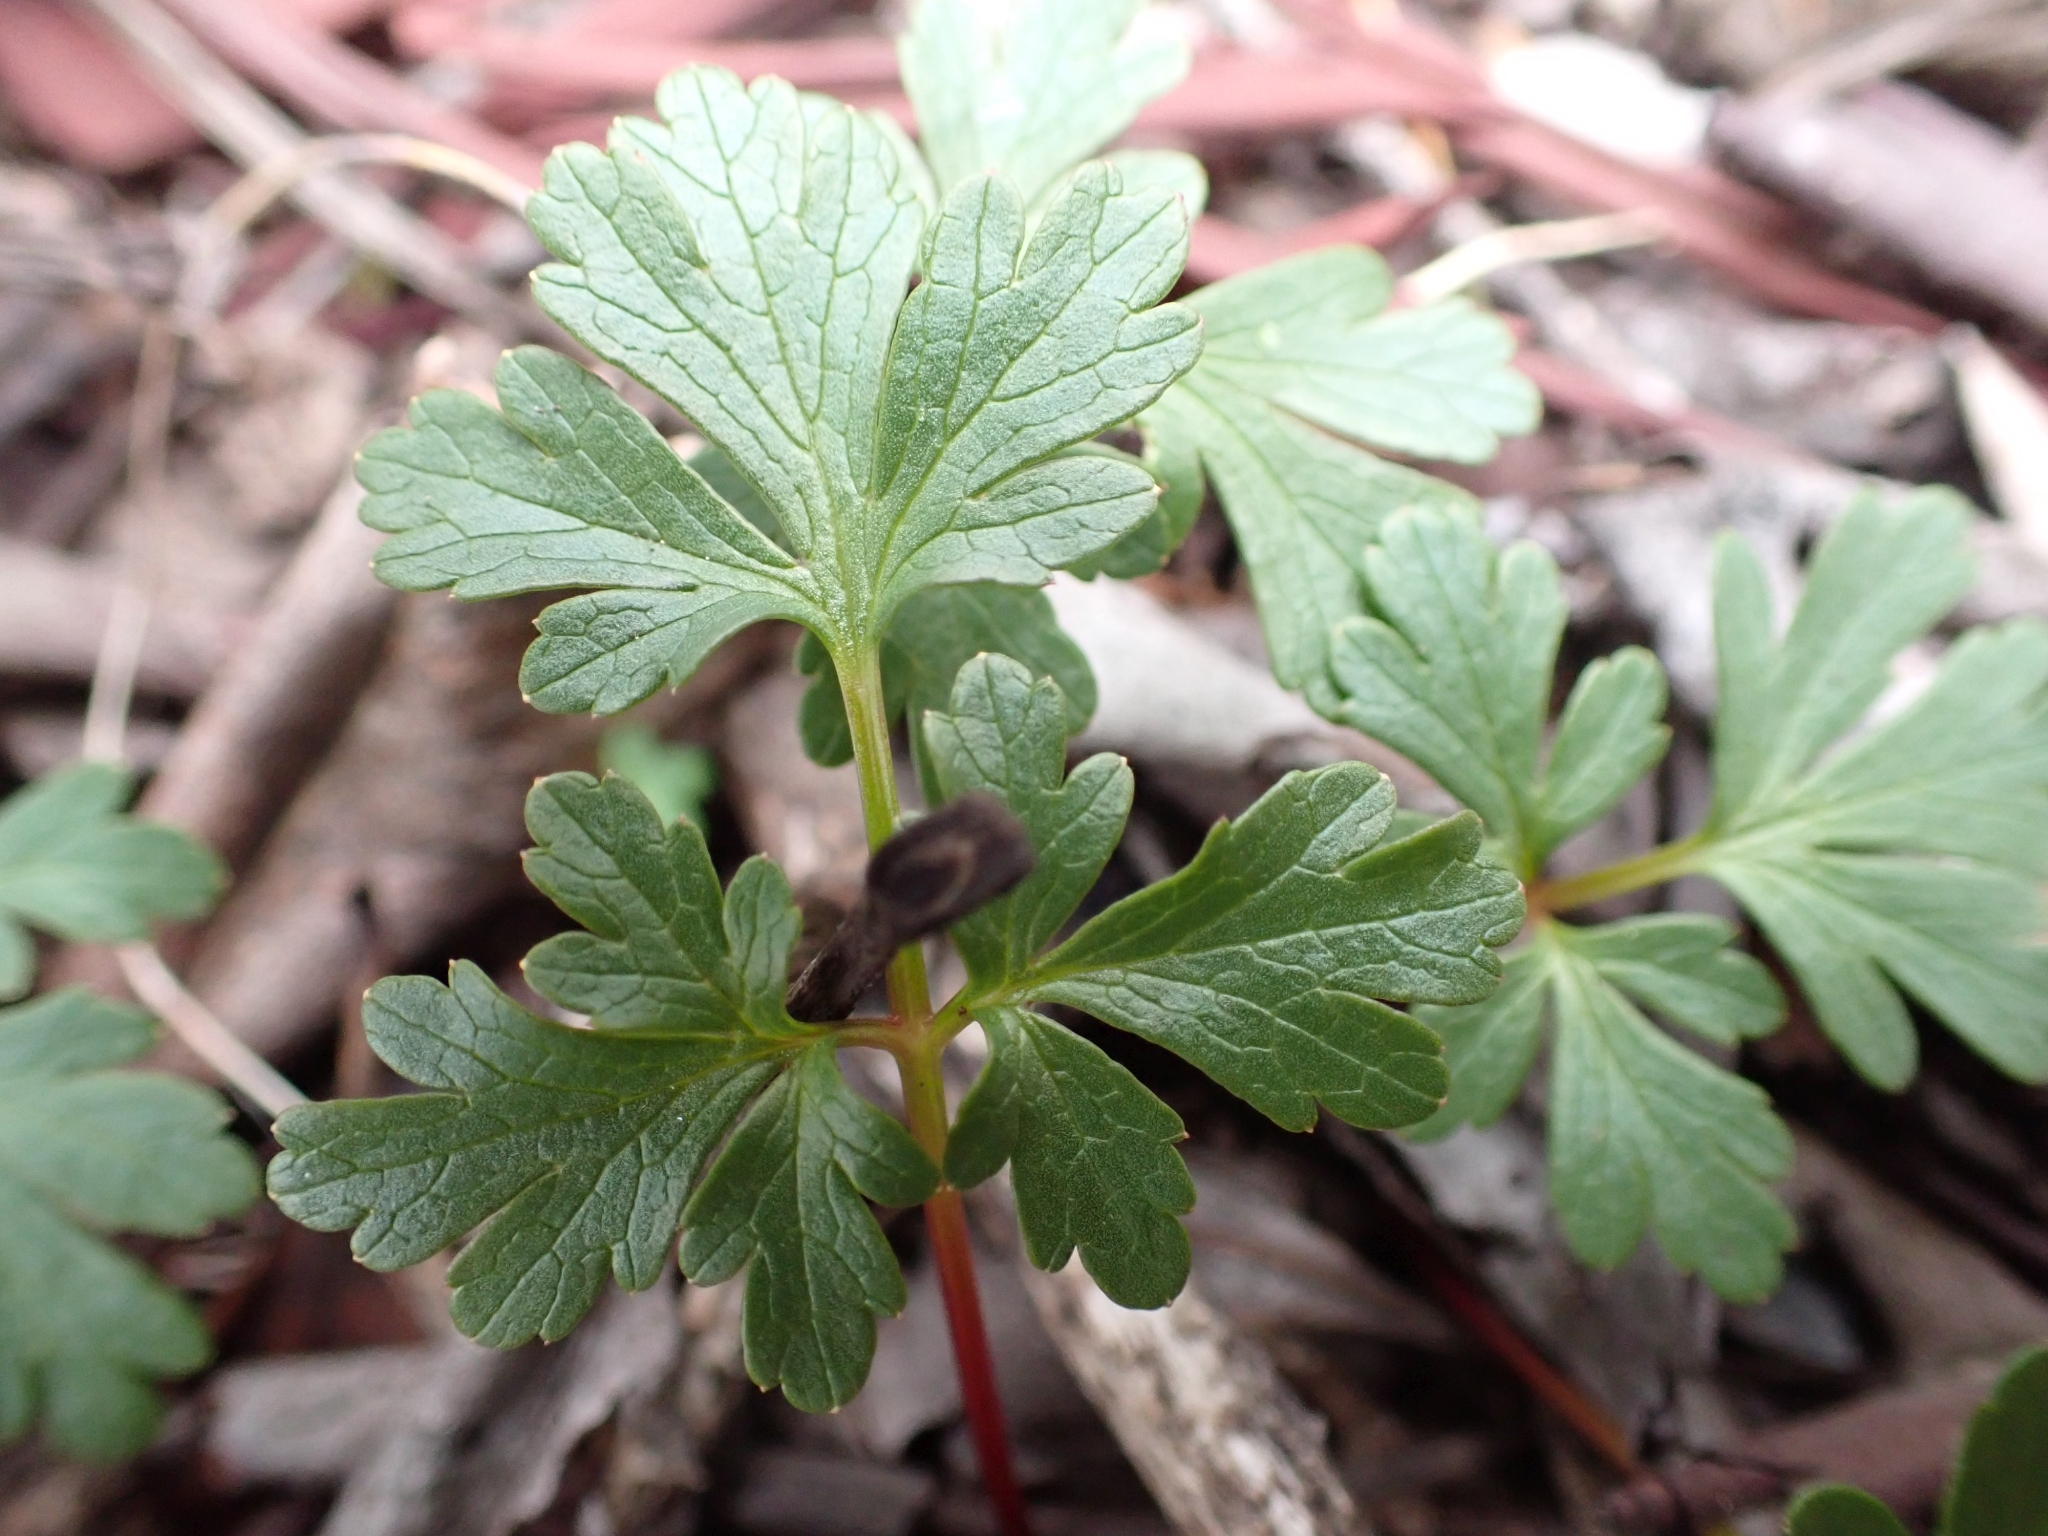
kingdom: Plantae
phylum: Tracheophyta
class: Magnoliopsida
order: Apiales
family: Apiaceae
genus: Sanicula
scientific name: Sanicula graveolens
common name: Sierra sanicle
